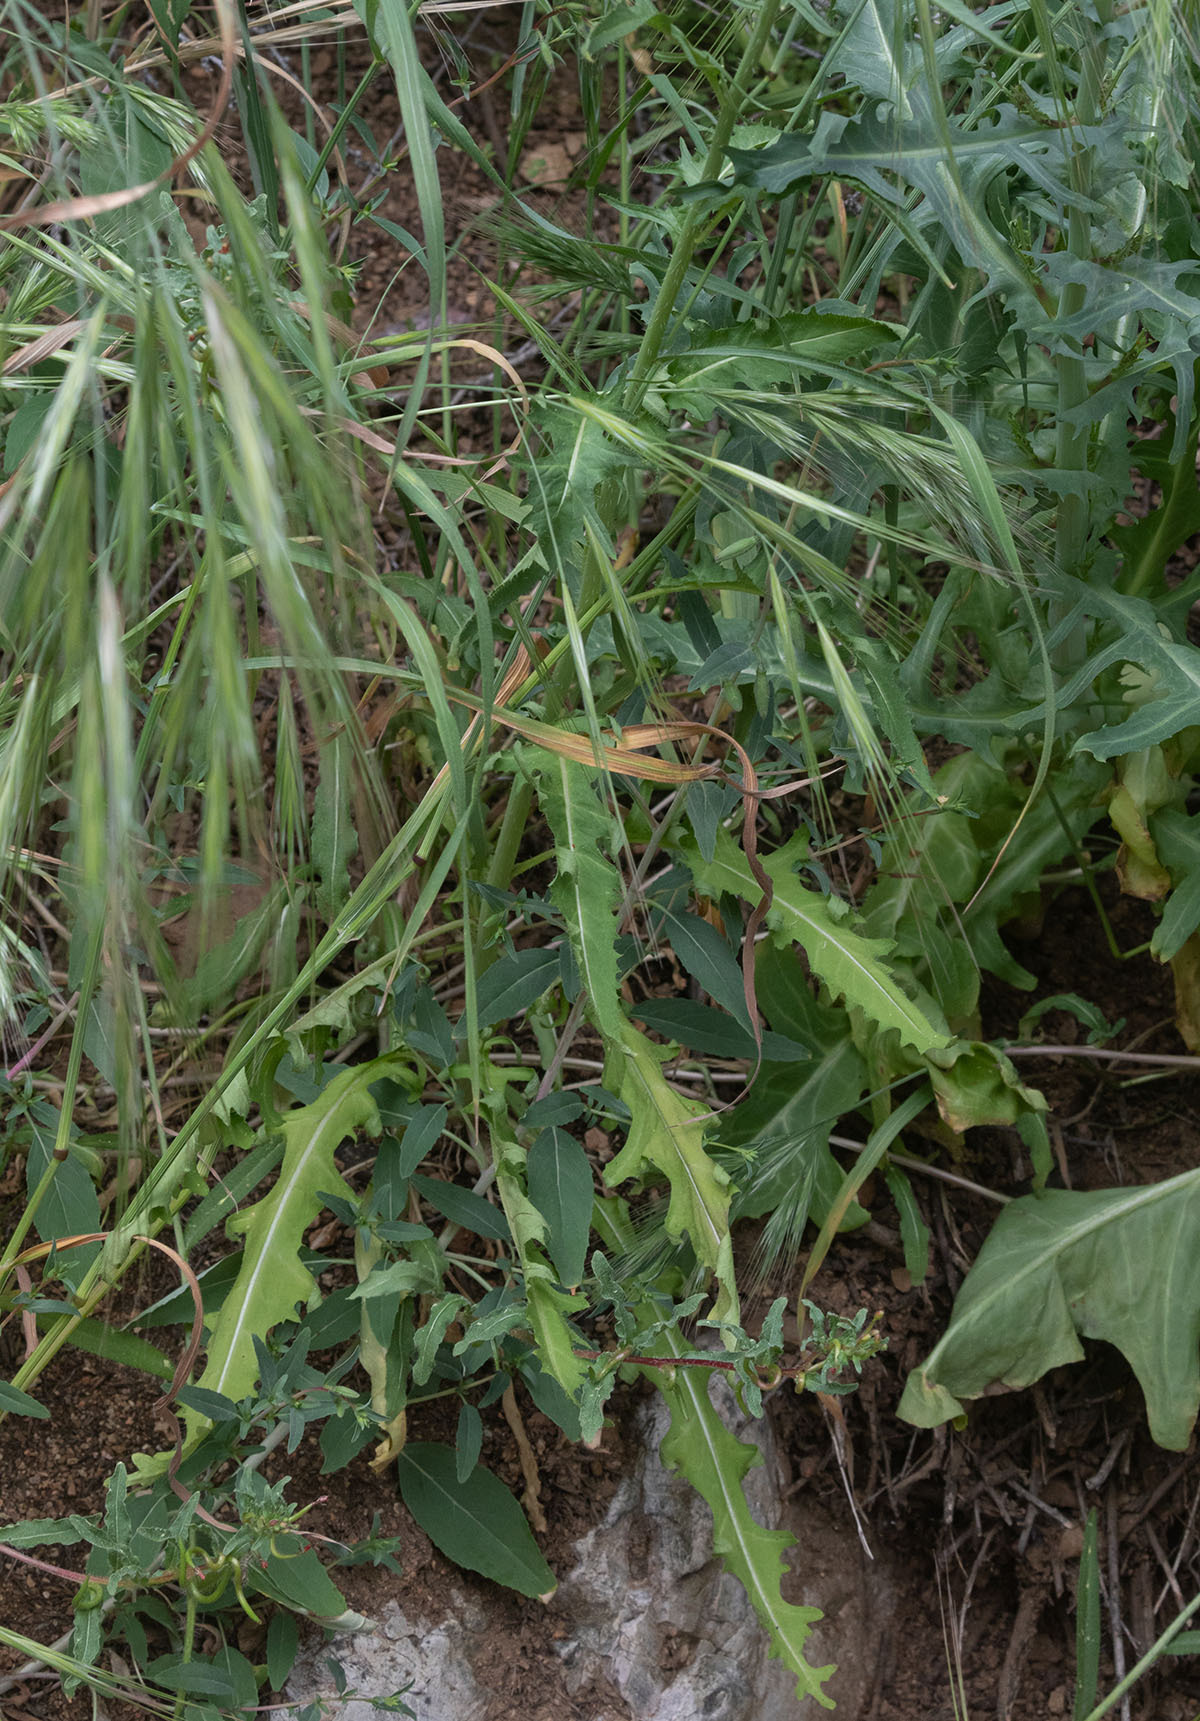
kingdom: Plantae
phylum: Tracheophyta
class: Magnoliopsida
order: Brassicales
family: Brassicaceae
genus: Streptanthus
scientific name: Streptanthus lasiophyllus
